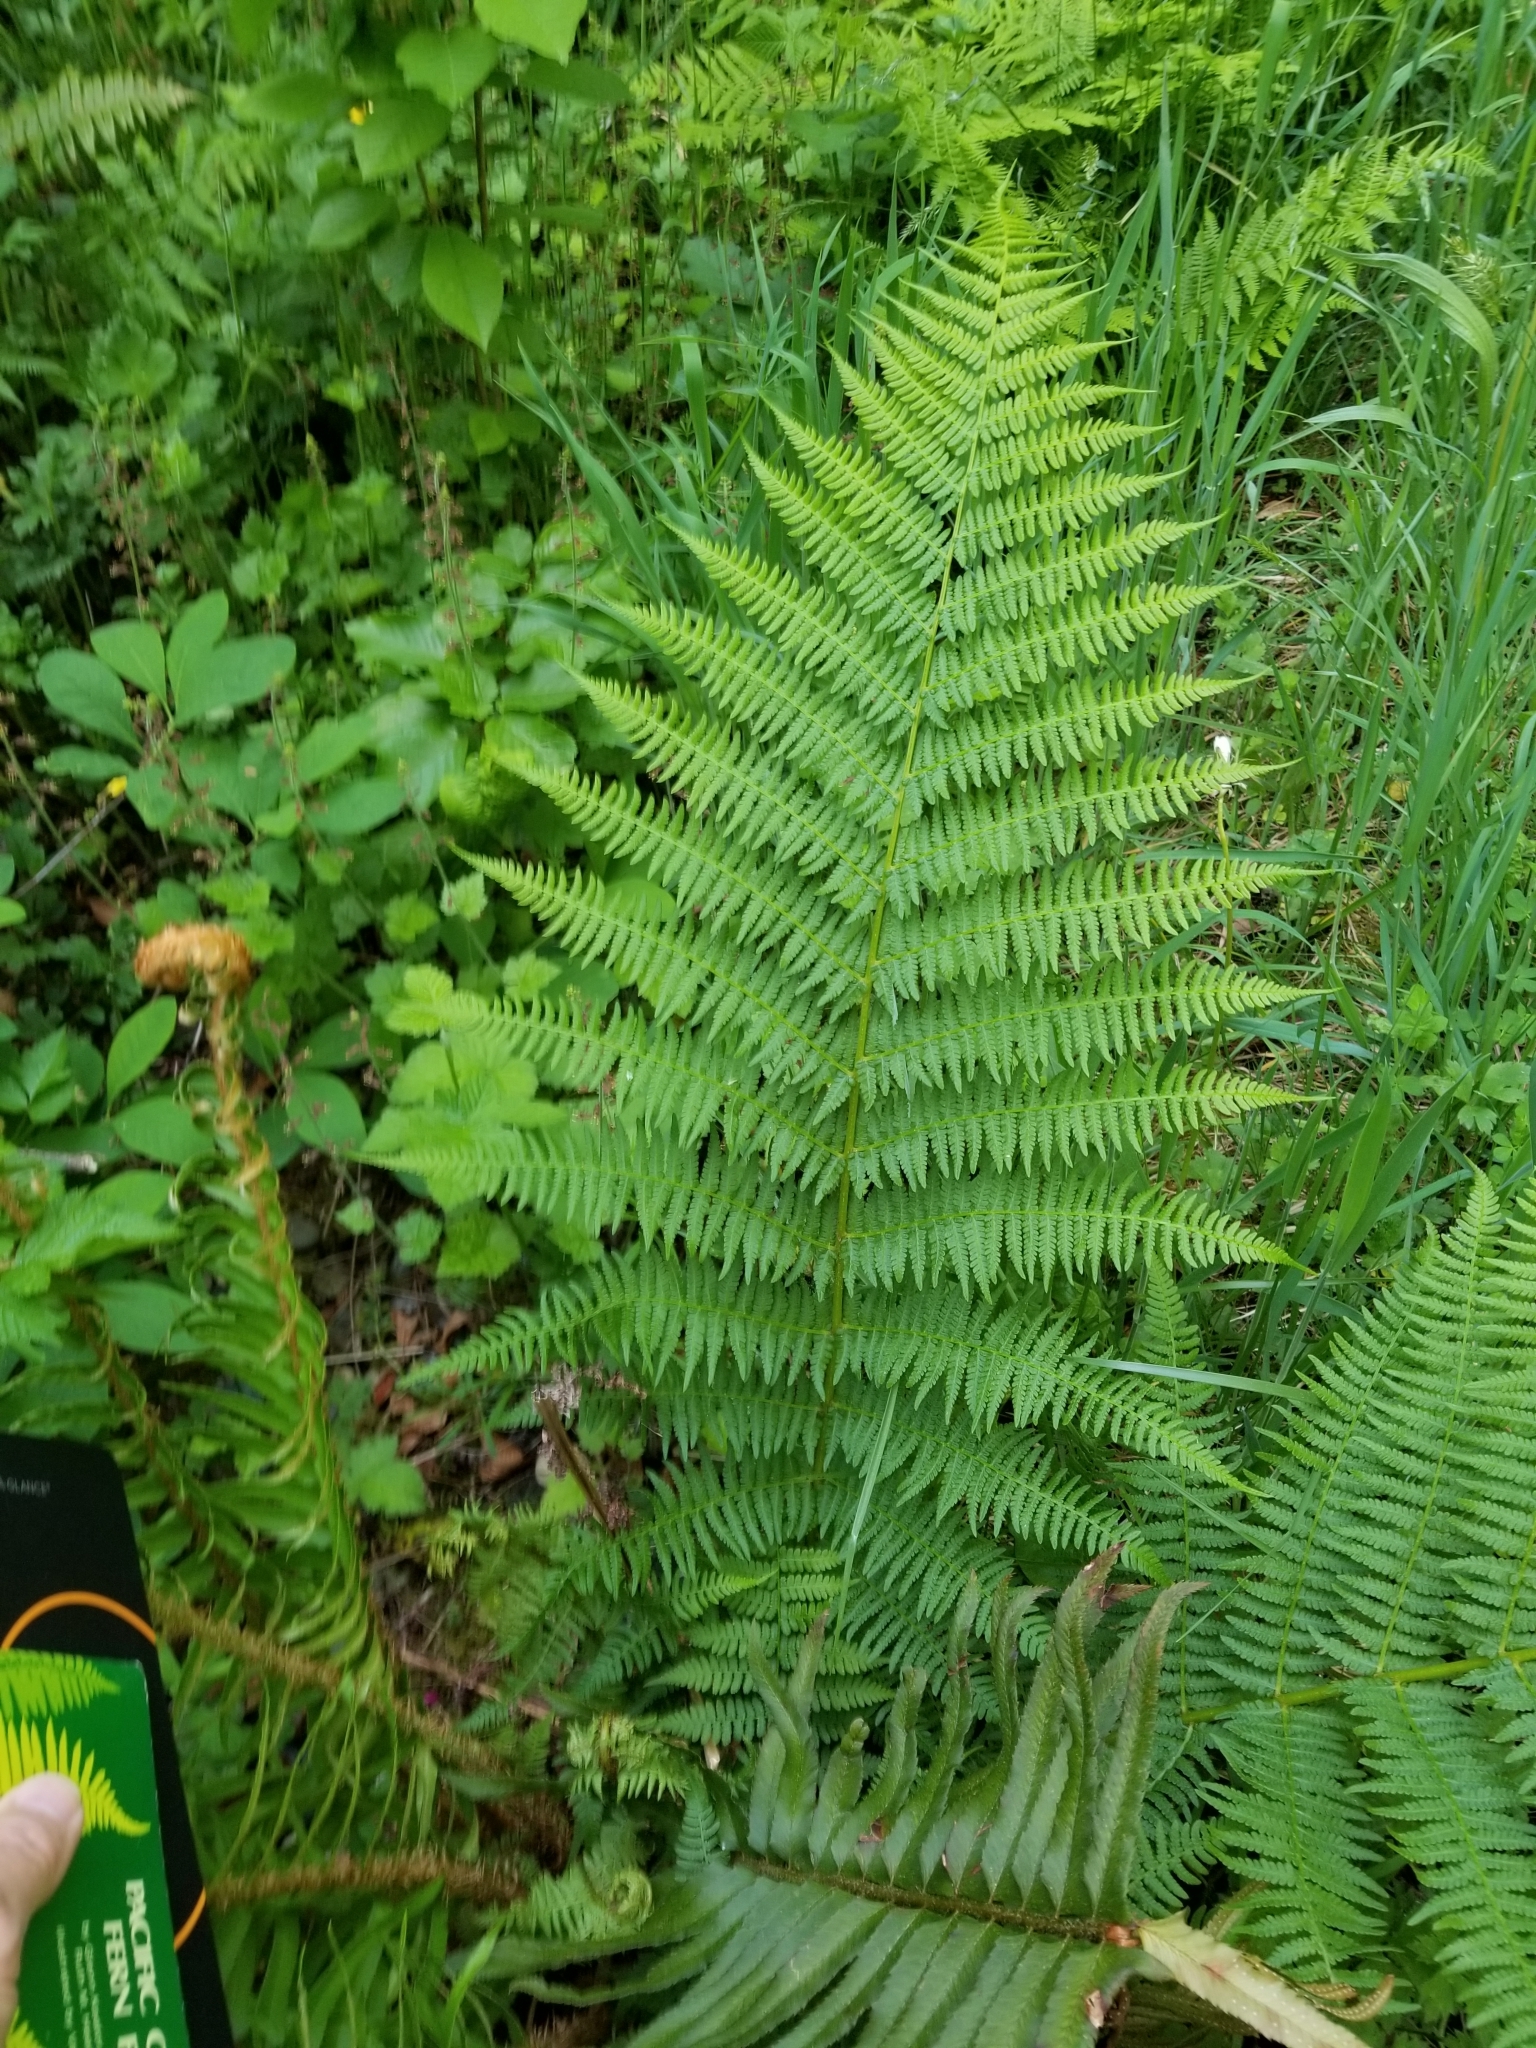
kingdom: Plantae
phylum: Tracheophyta
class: Polypodiopsida
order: Polypodiales
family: Athyriaceae
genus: Athyrium
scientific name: Athyrium cyclosorum
